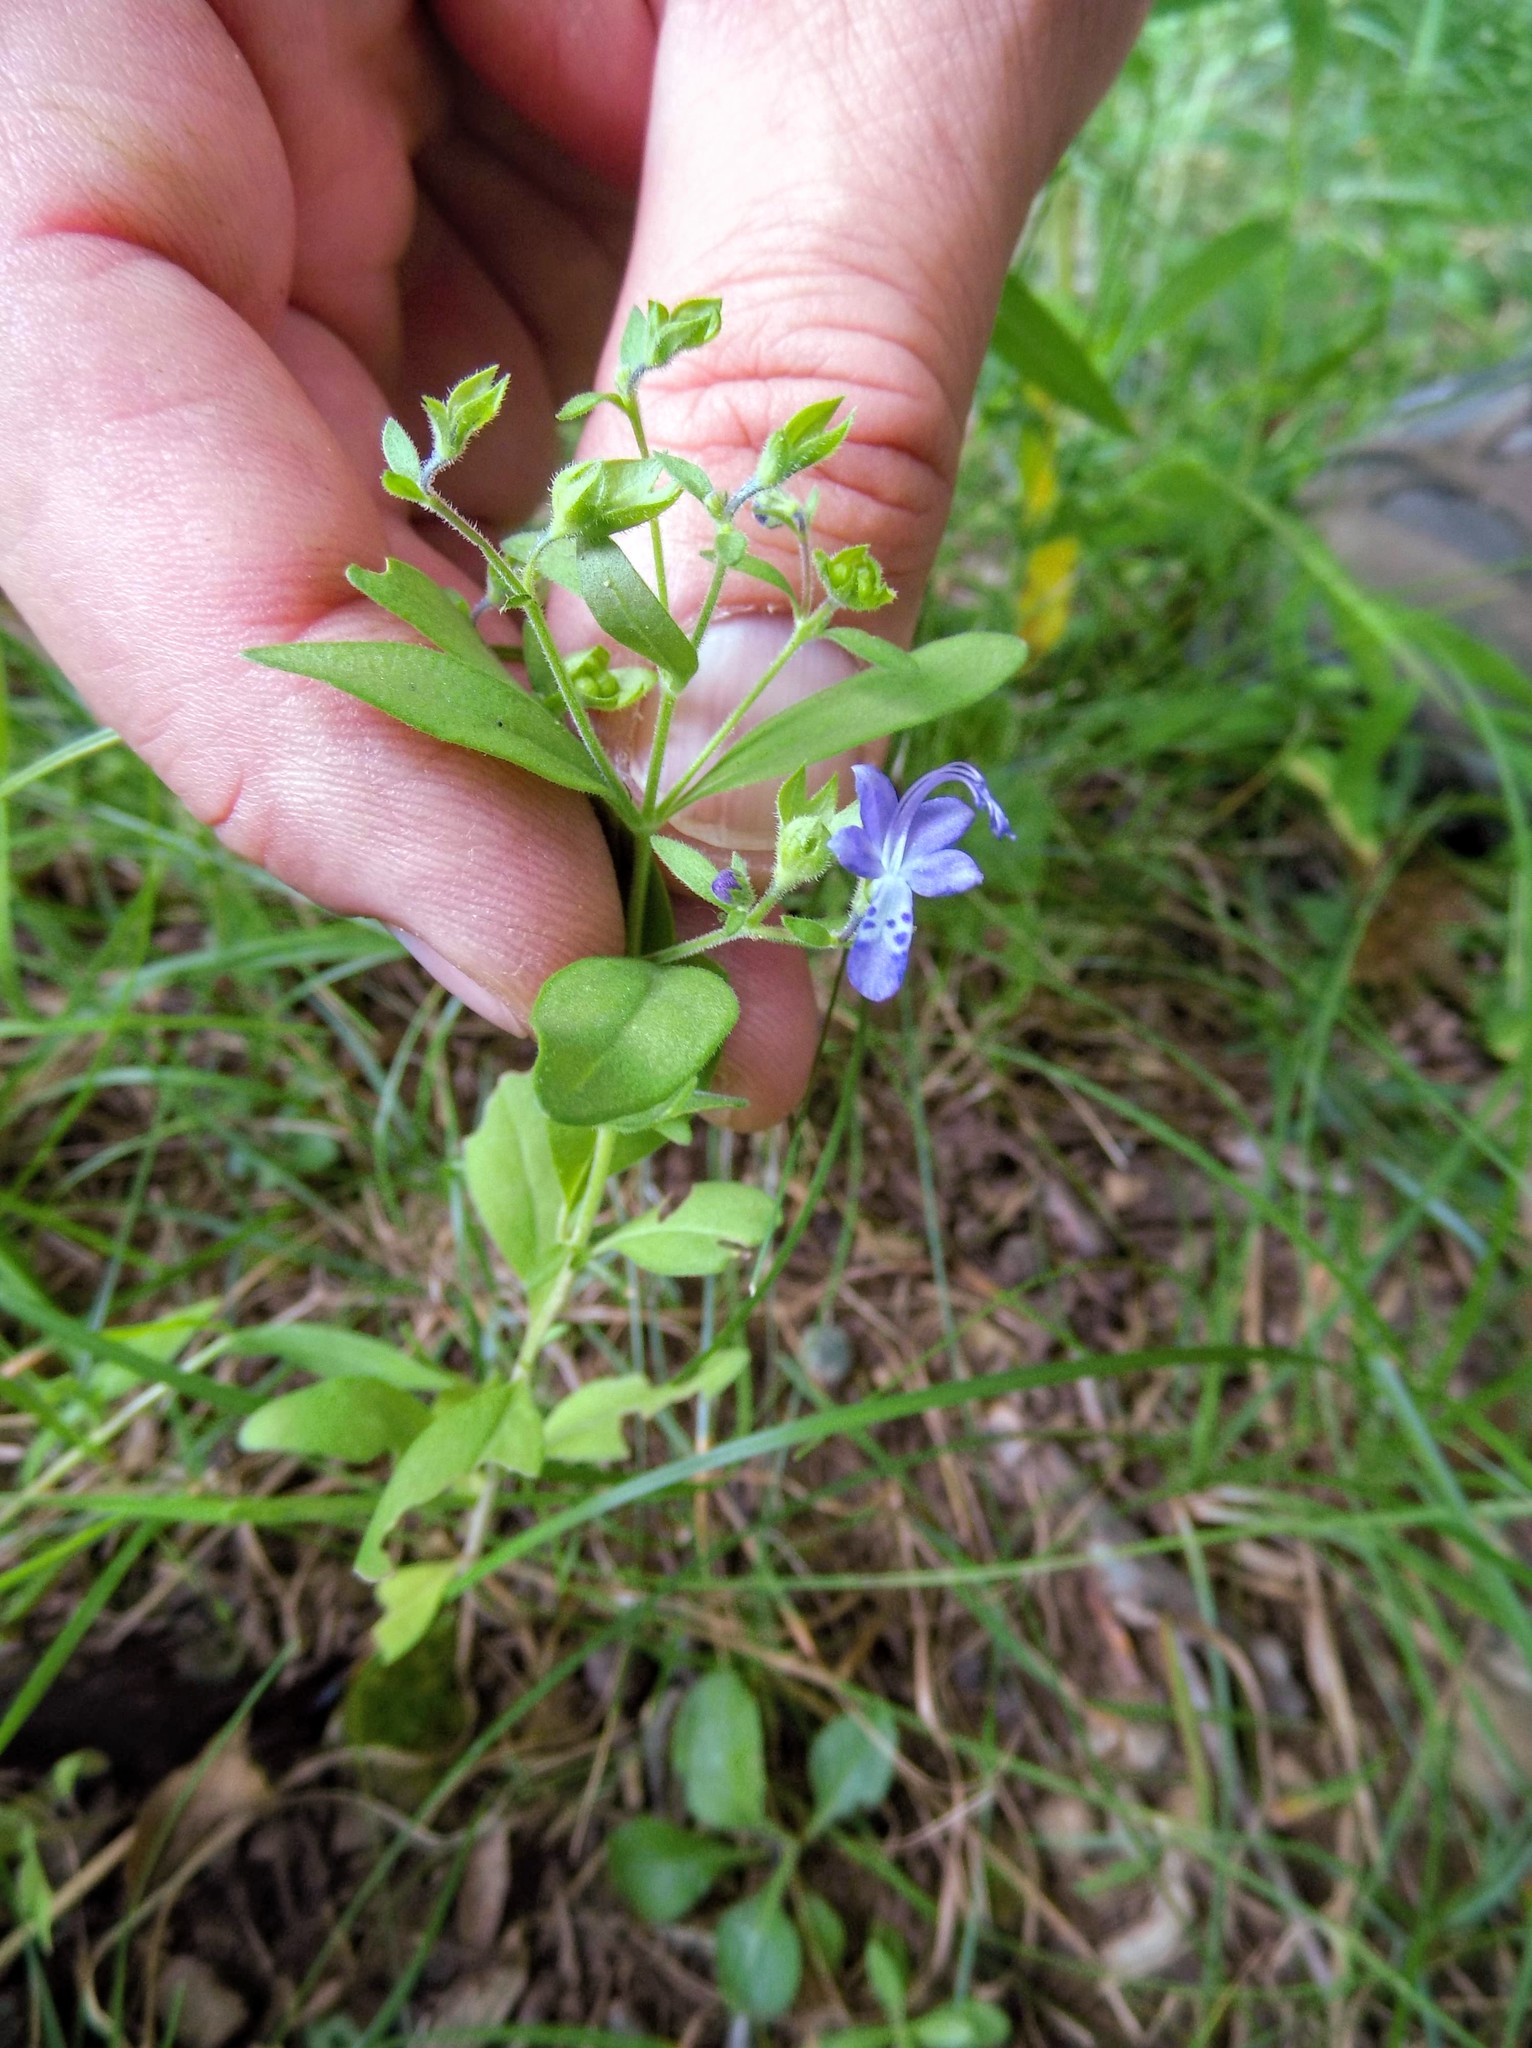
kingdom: Plantae
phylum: Tracheophyta
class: Magnoliopsida
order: Lamiales
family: Lamiaceae
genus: Trichostema
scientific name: Trichostema dichotomum
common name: Bastard pennyroyal
